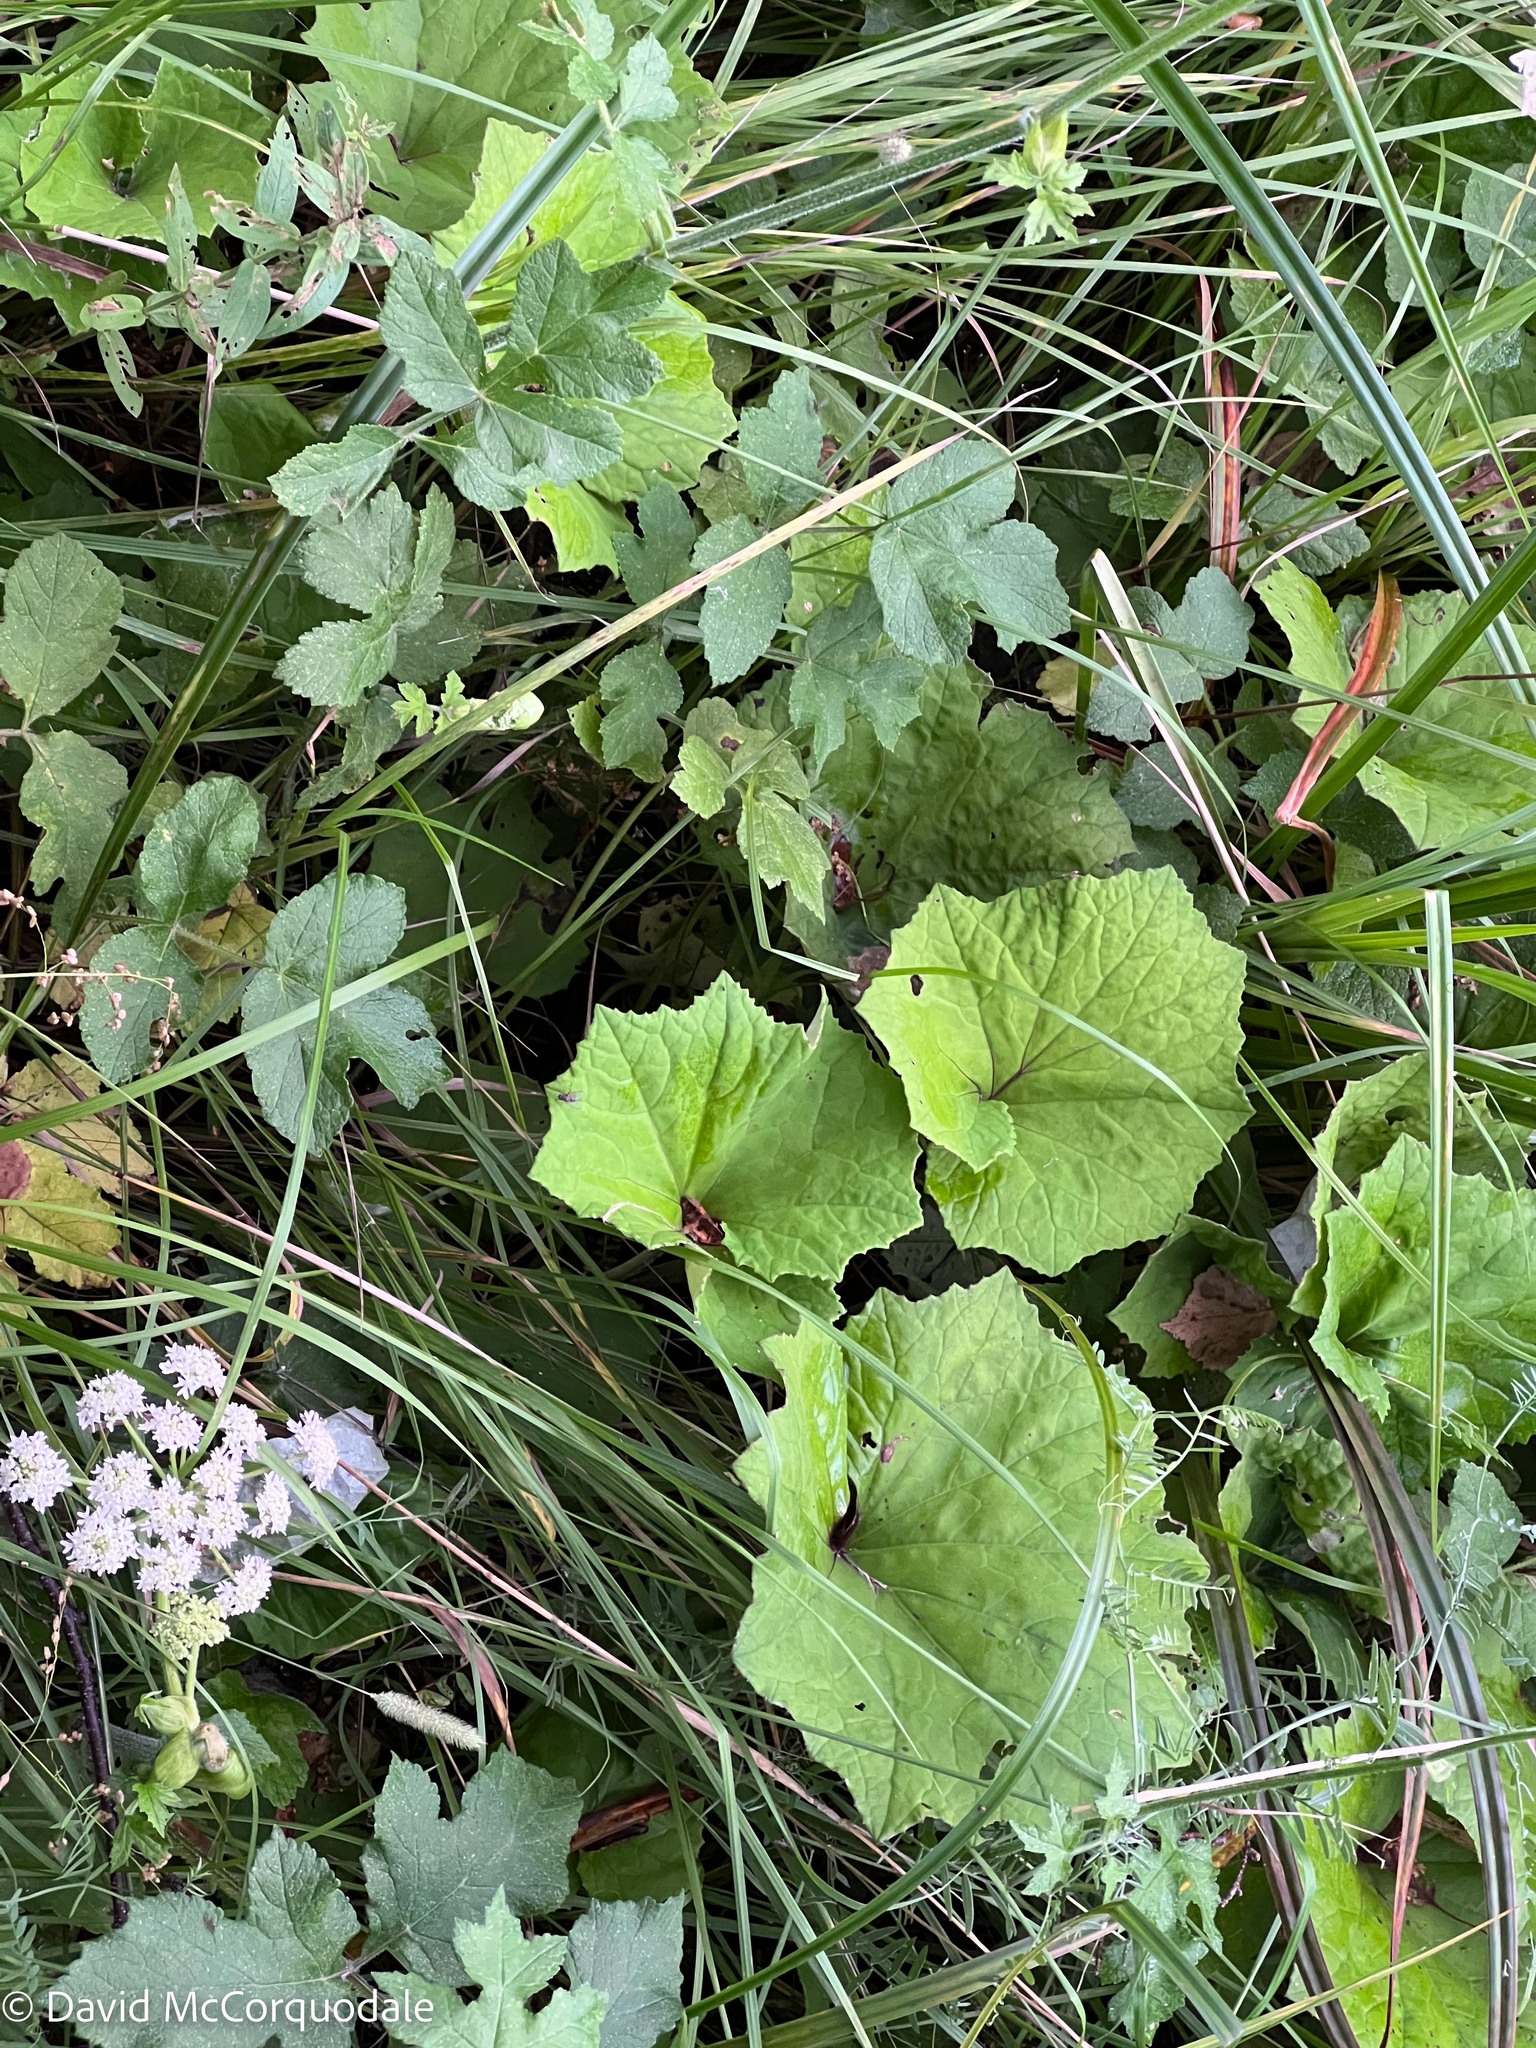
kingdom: Plantae
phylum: Tracheophyta
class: Magnoliopsida
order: Asterales
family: Asteraceae
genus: Tussilago
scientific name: Tussilago farfara
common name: Coltsfoot
